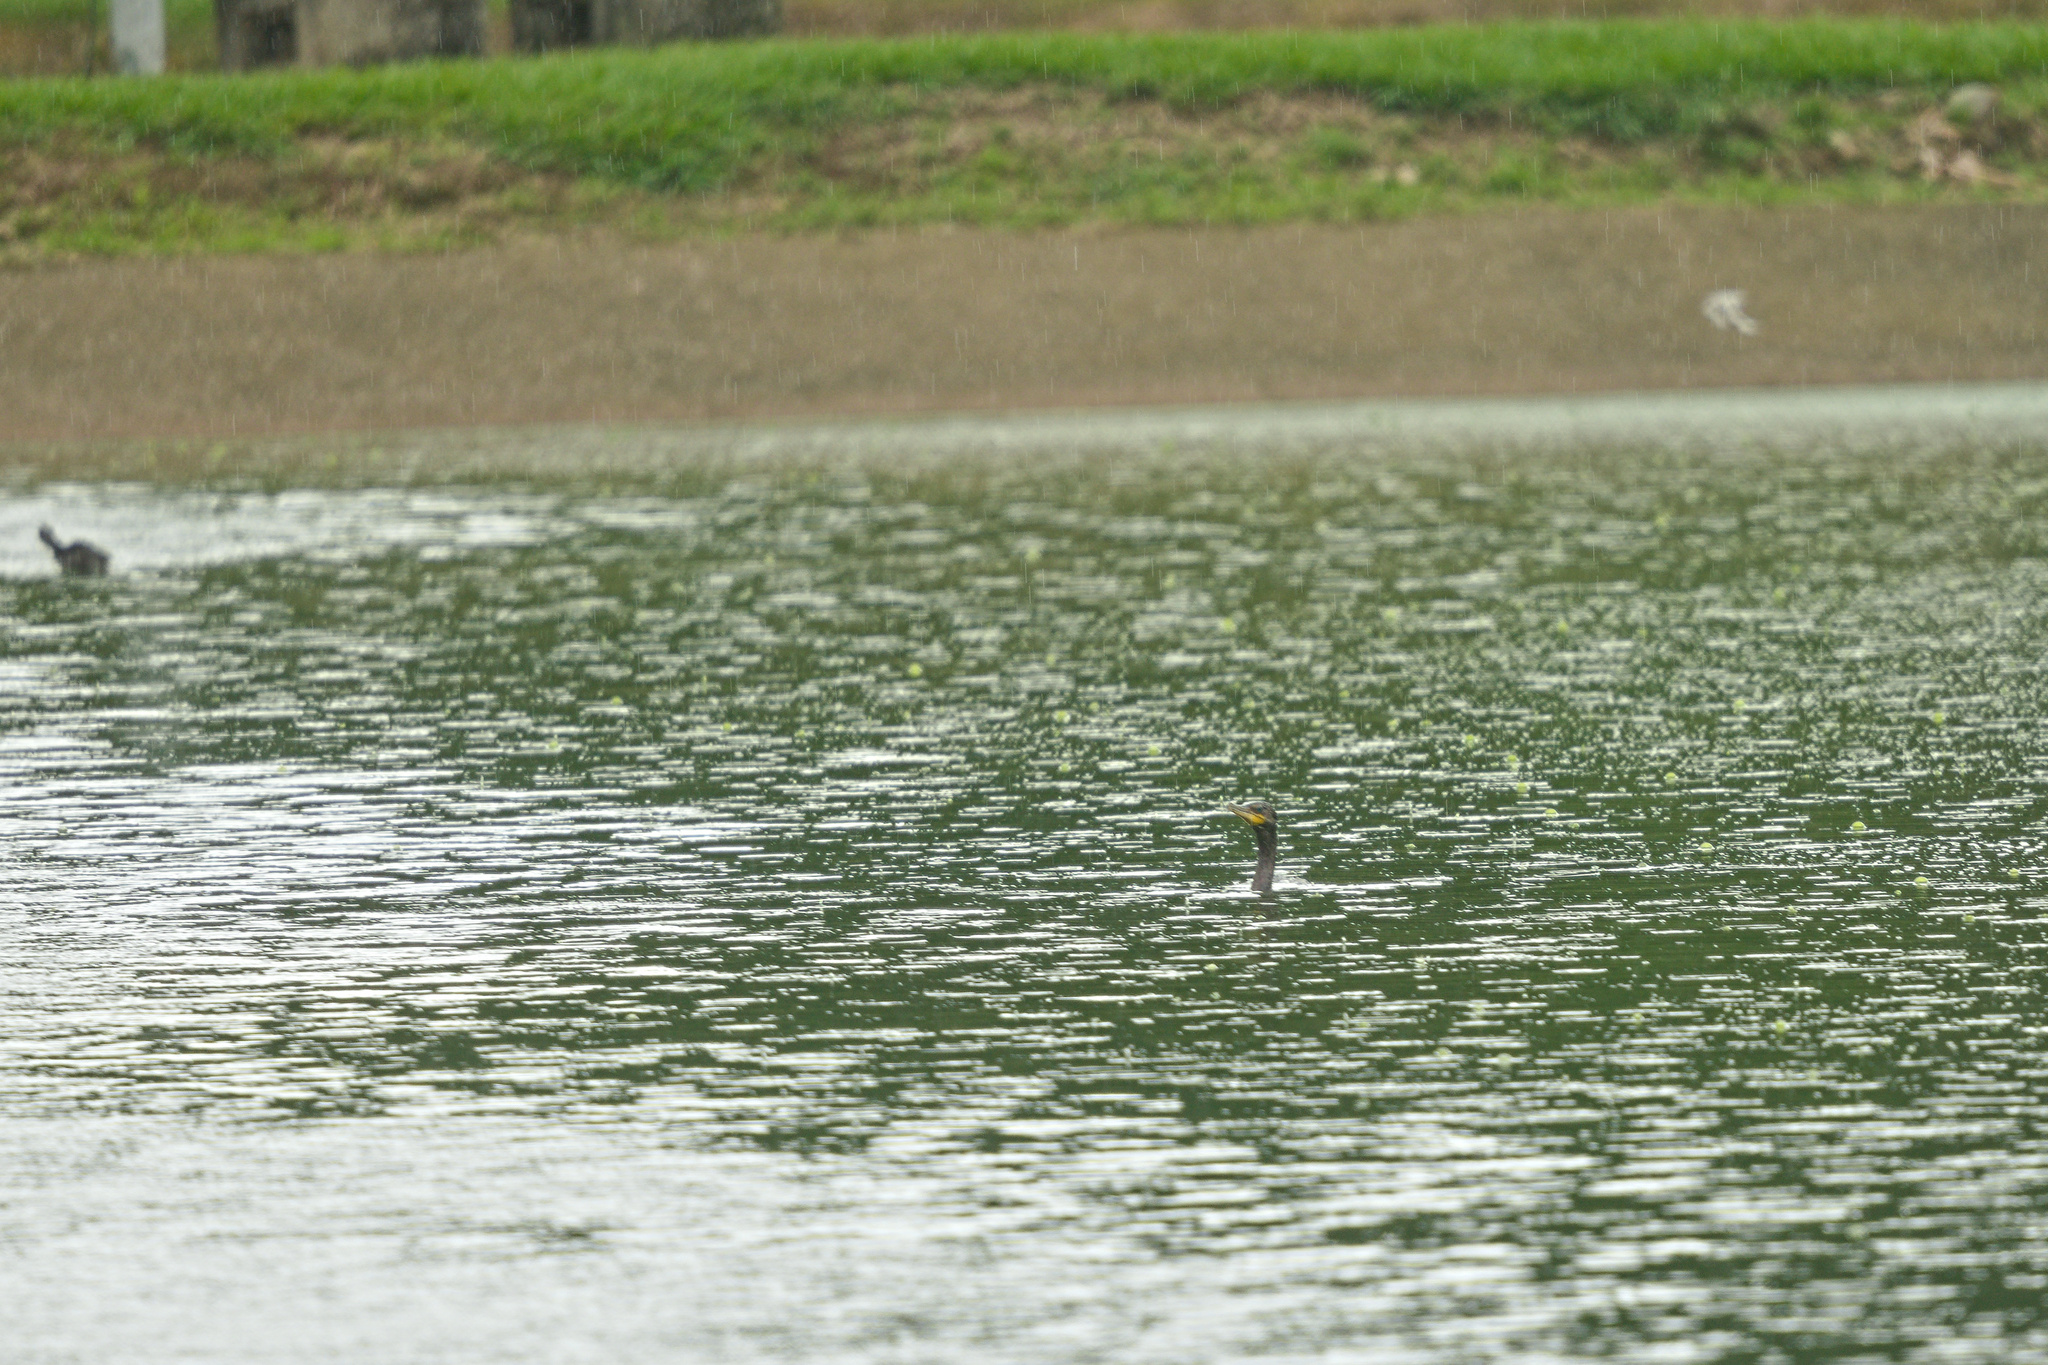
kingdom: Animalia
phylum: Chordata
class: Aves
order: Suliformes
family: Phalacrocoracidae
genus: Phalacrocorax
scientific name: Phalacrocorax brasilianus
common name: Neotropic cormorant
